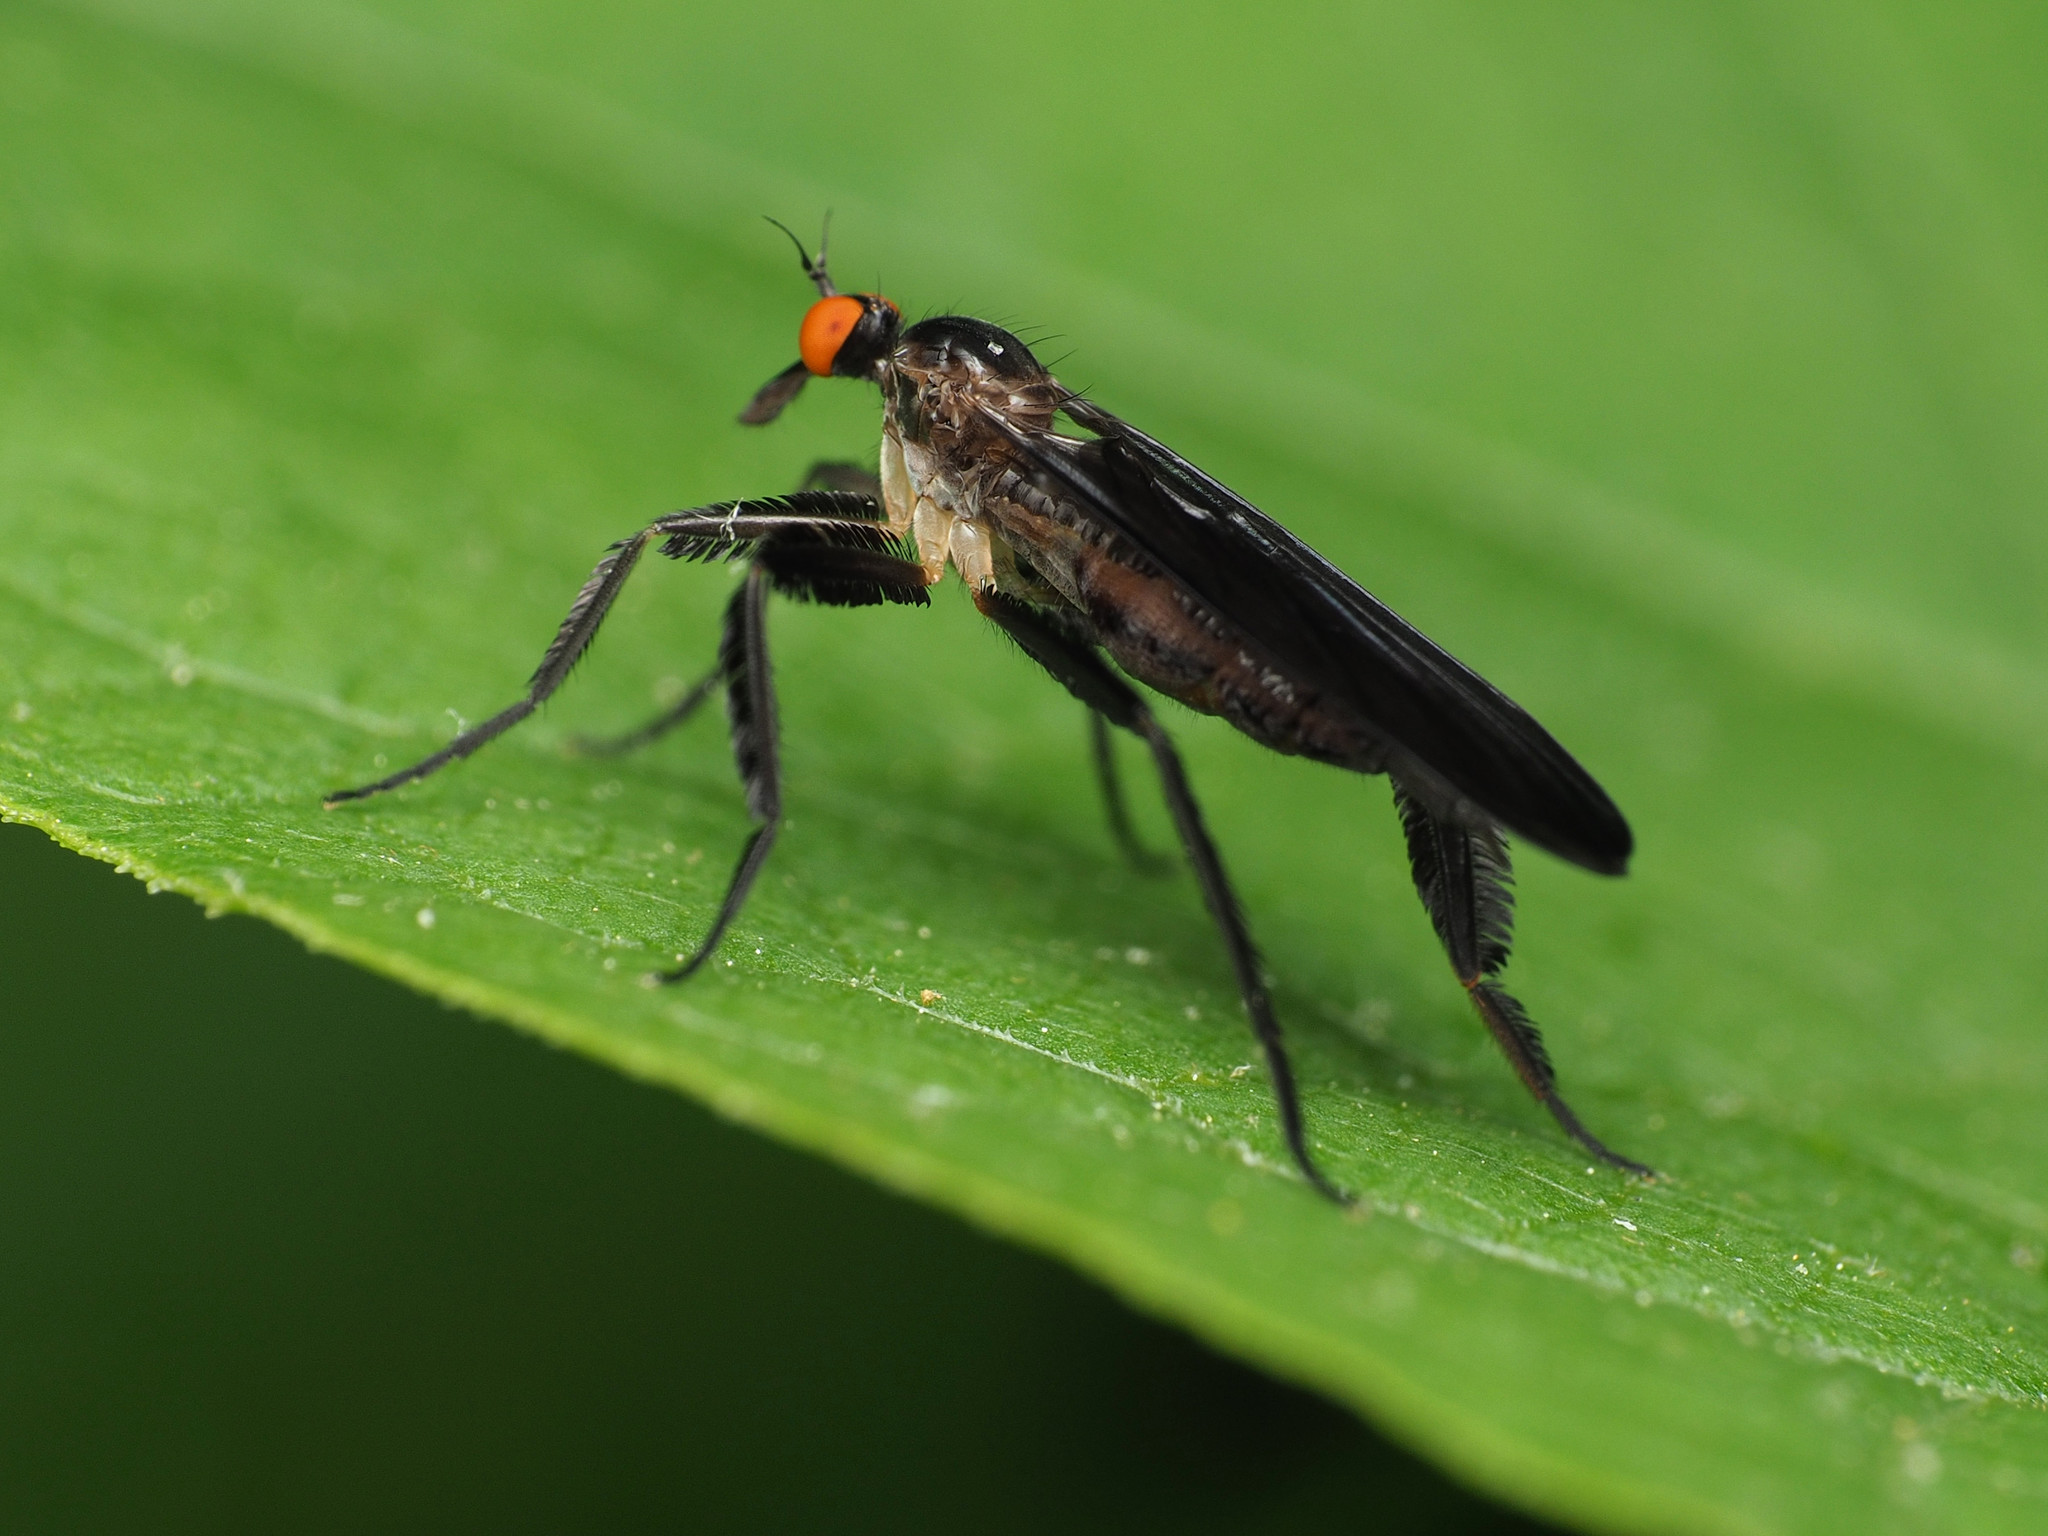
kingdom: Animalia
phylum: Arthropoda
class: Insecta
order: Diptera
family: Empididae
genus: Rhamphomyia
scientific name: Rhamphomyia longicauda
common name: Long-tailed dance fly
